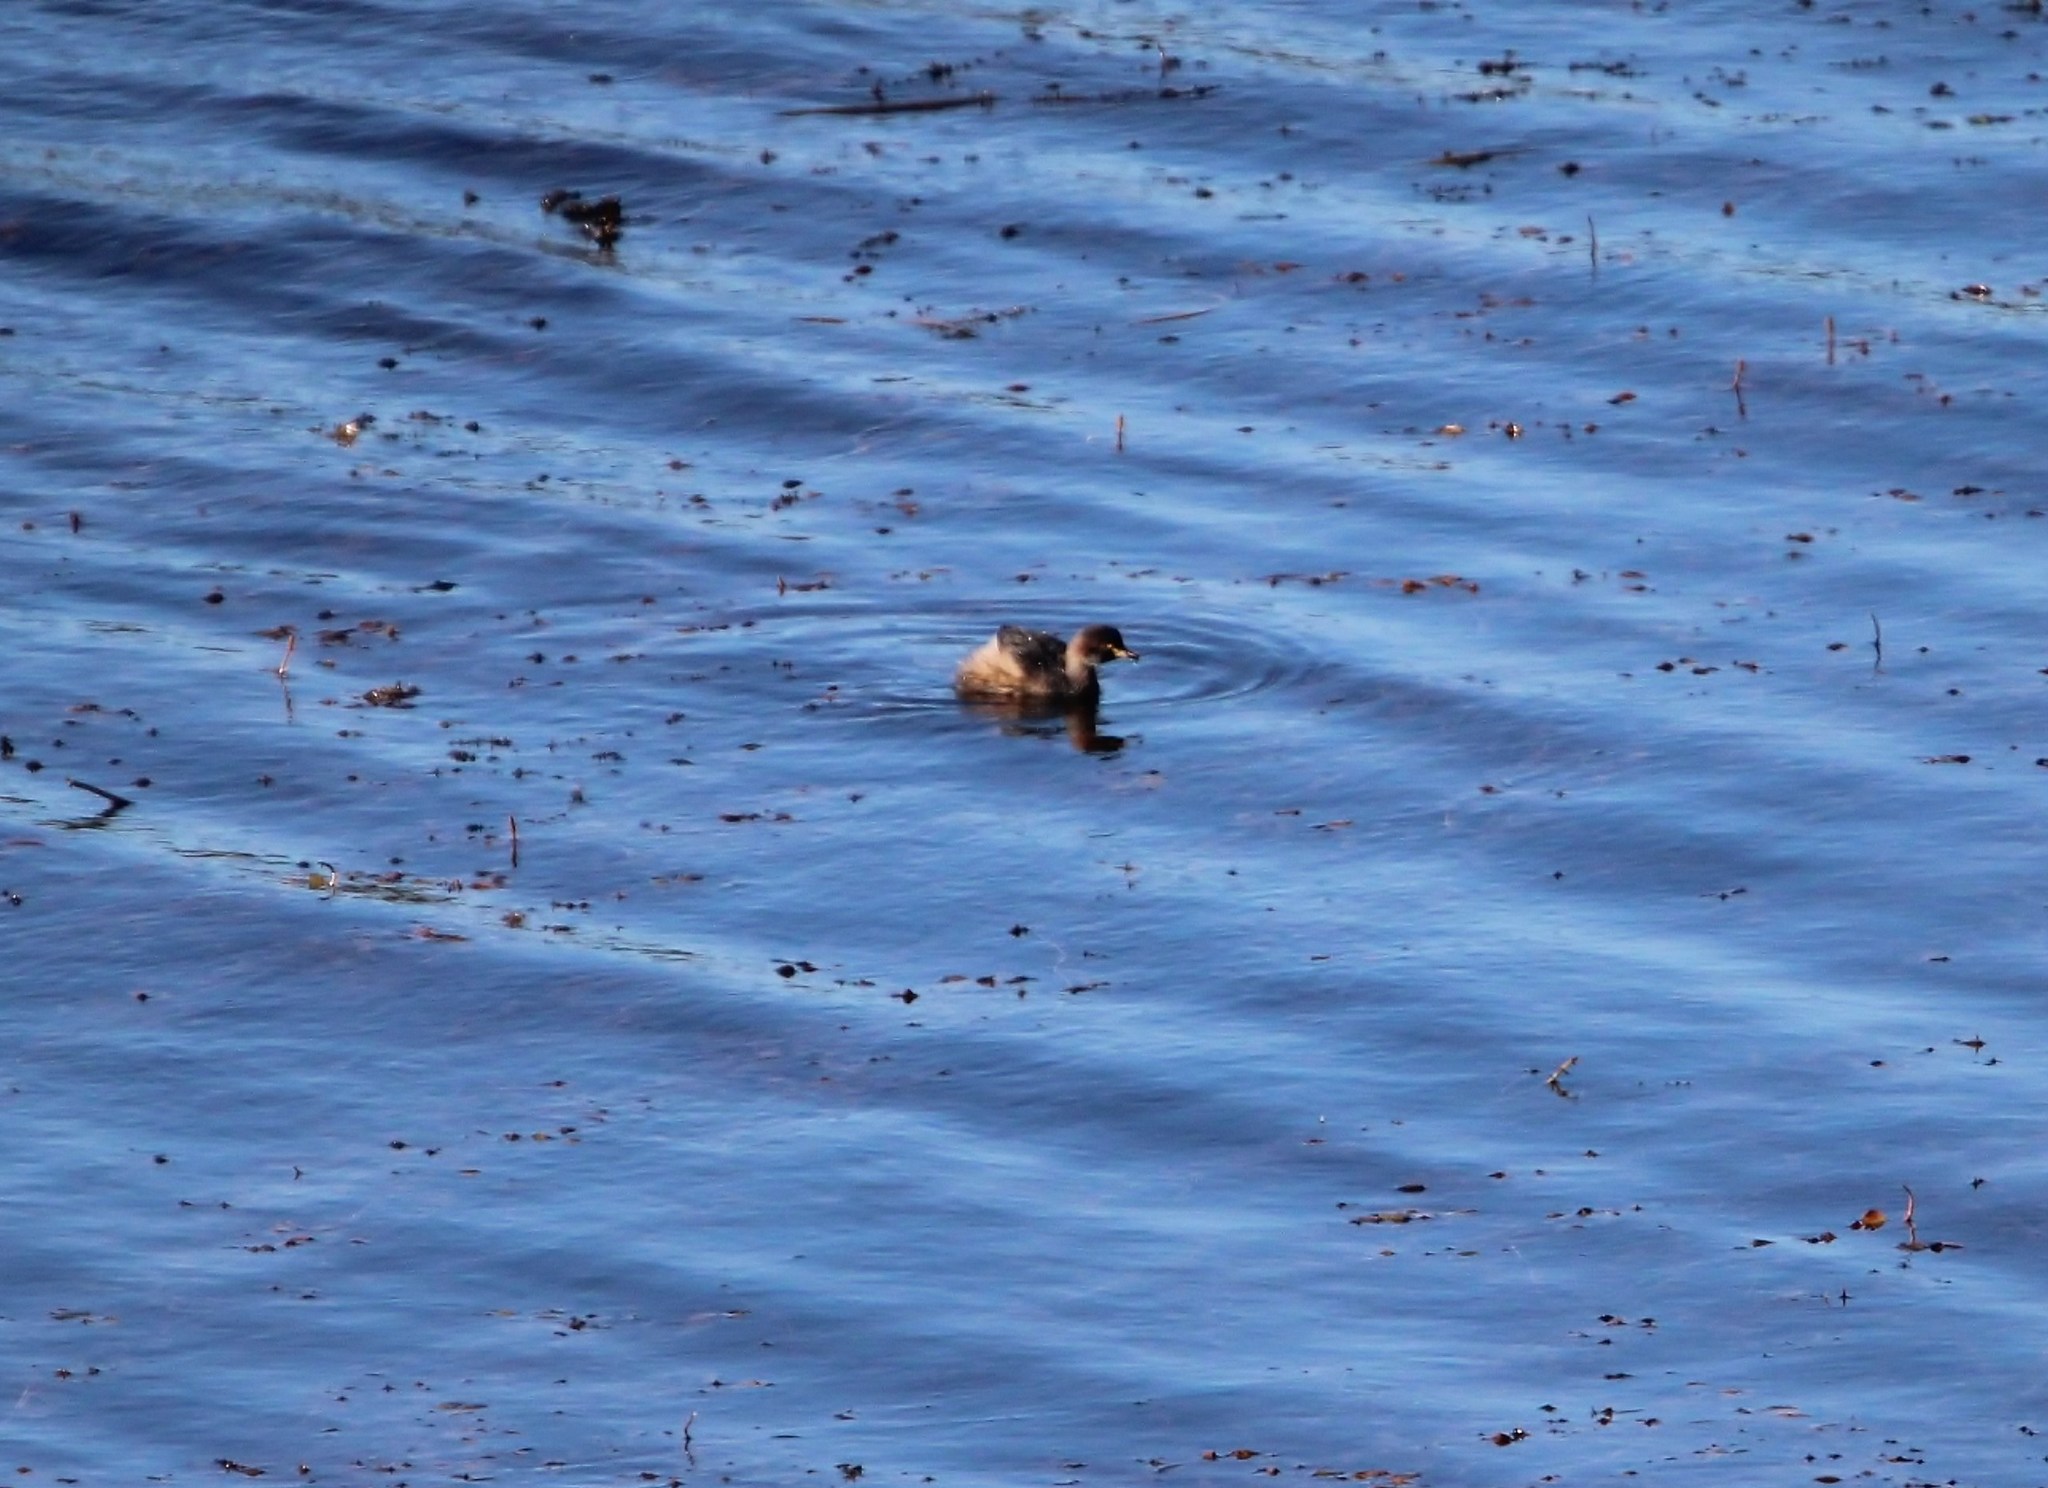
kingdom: Animalia
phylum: Chordata
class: Aves
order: Podicipediformes
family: Podicipedidae
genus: Tachybaptus
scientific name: Tachybaptus novaehollandiae
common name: Australasian grebe
